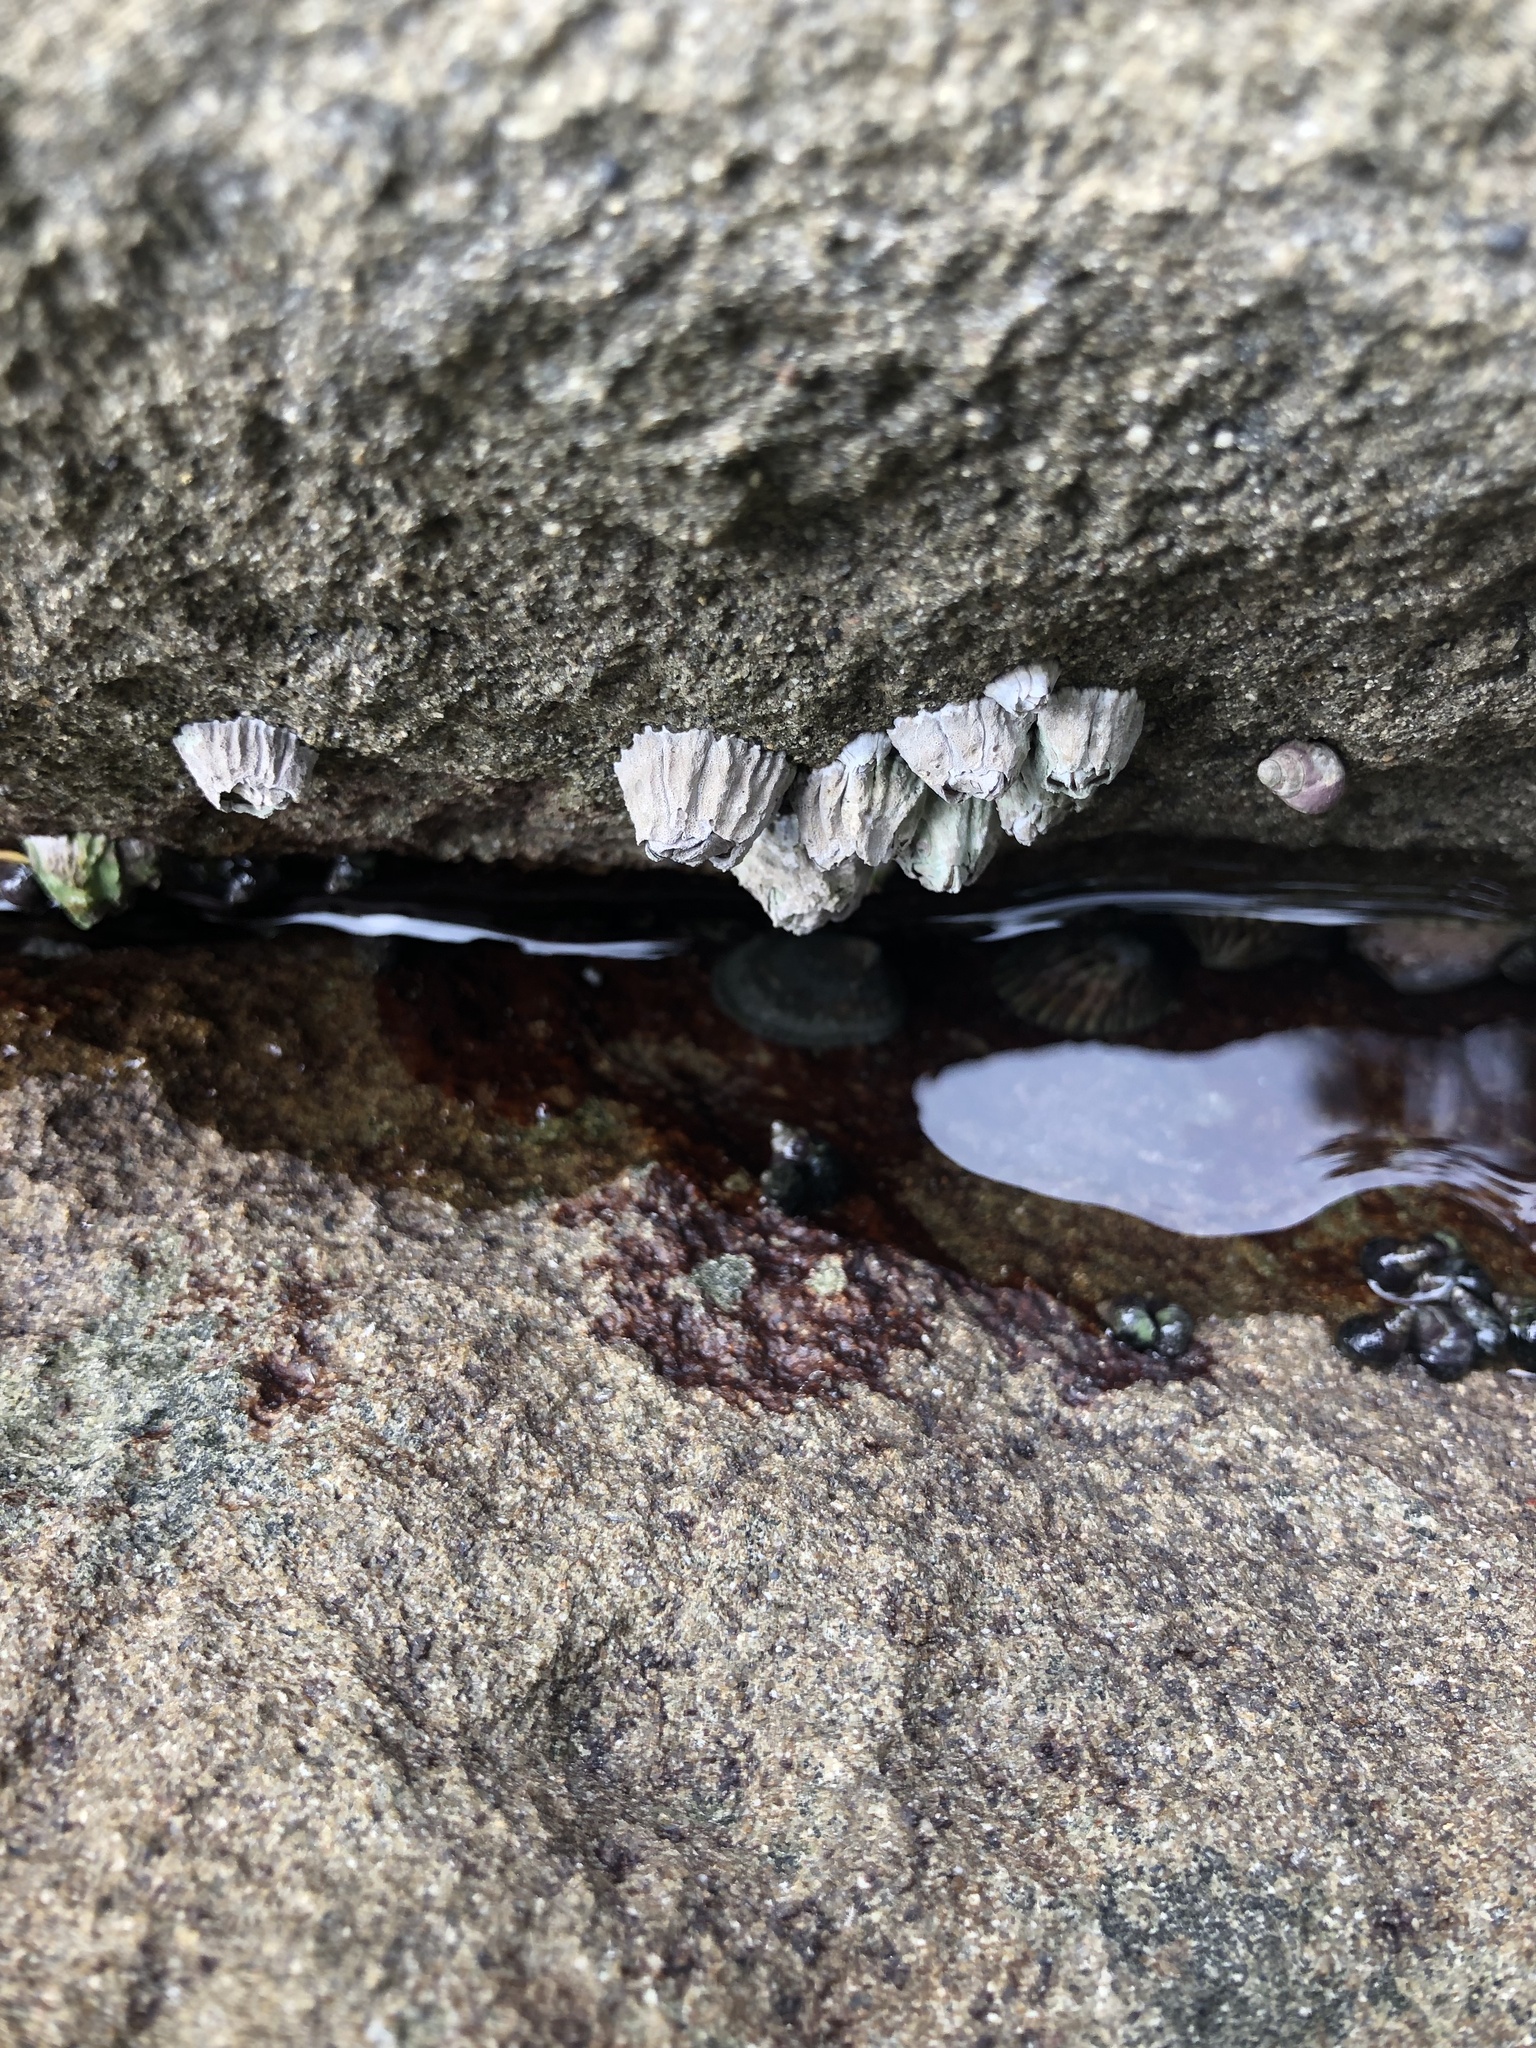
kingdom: Animalia
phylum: Arthropoda
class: Maxillopoda
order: Sessilia
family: Balanidae
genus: Balanus
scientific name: Balanus glandula
